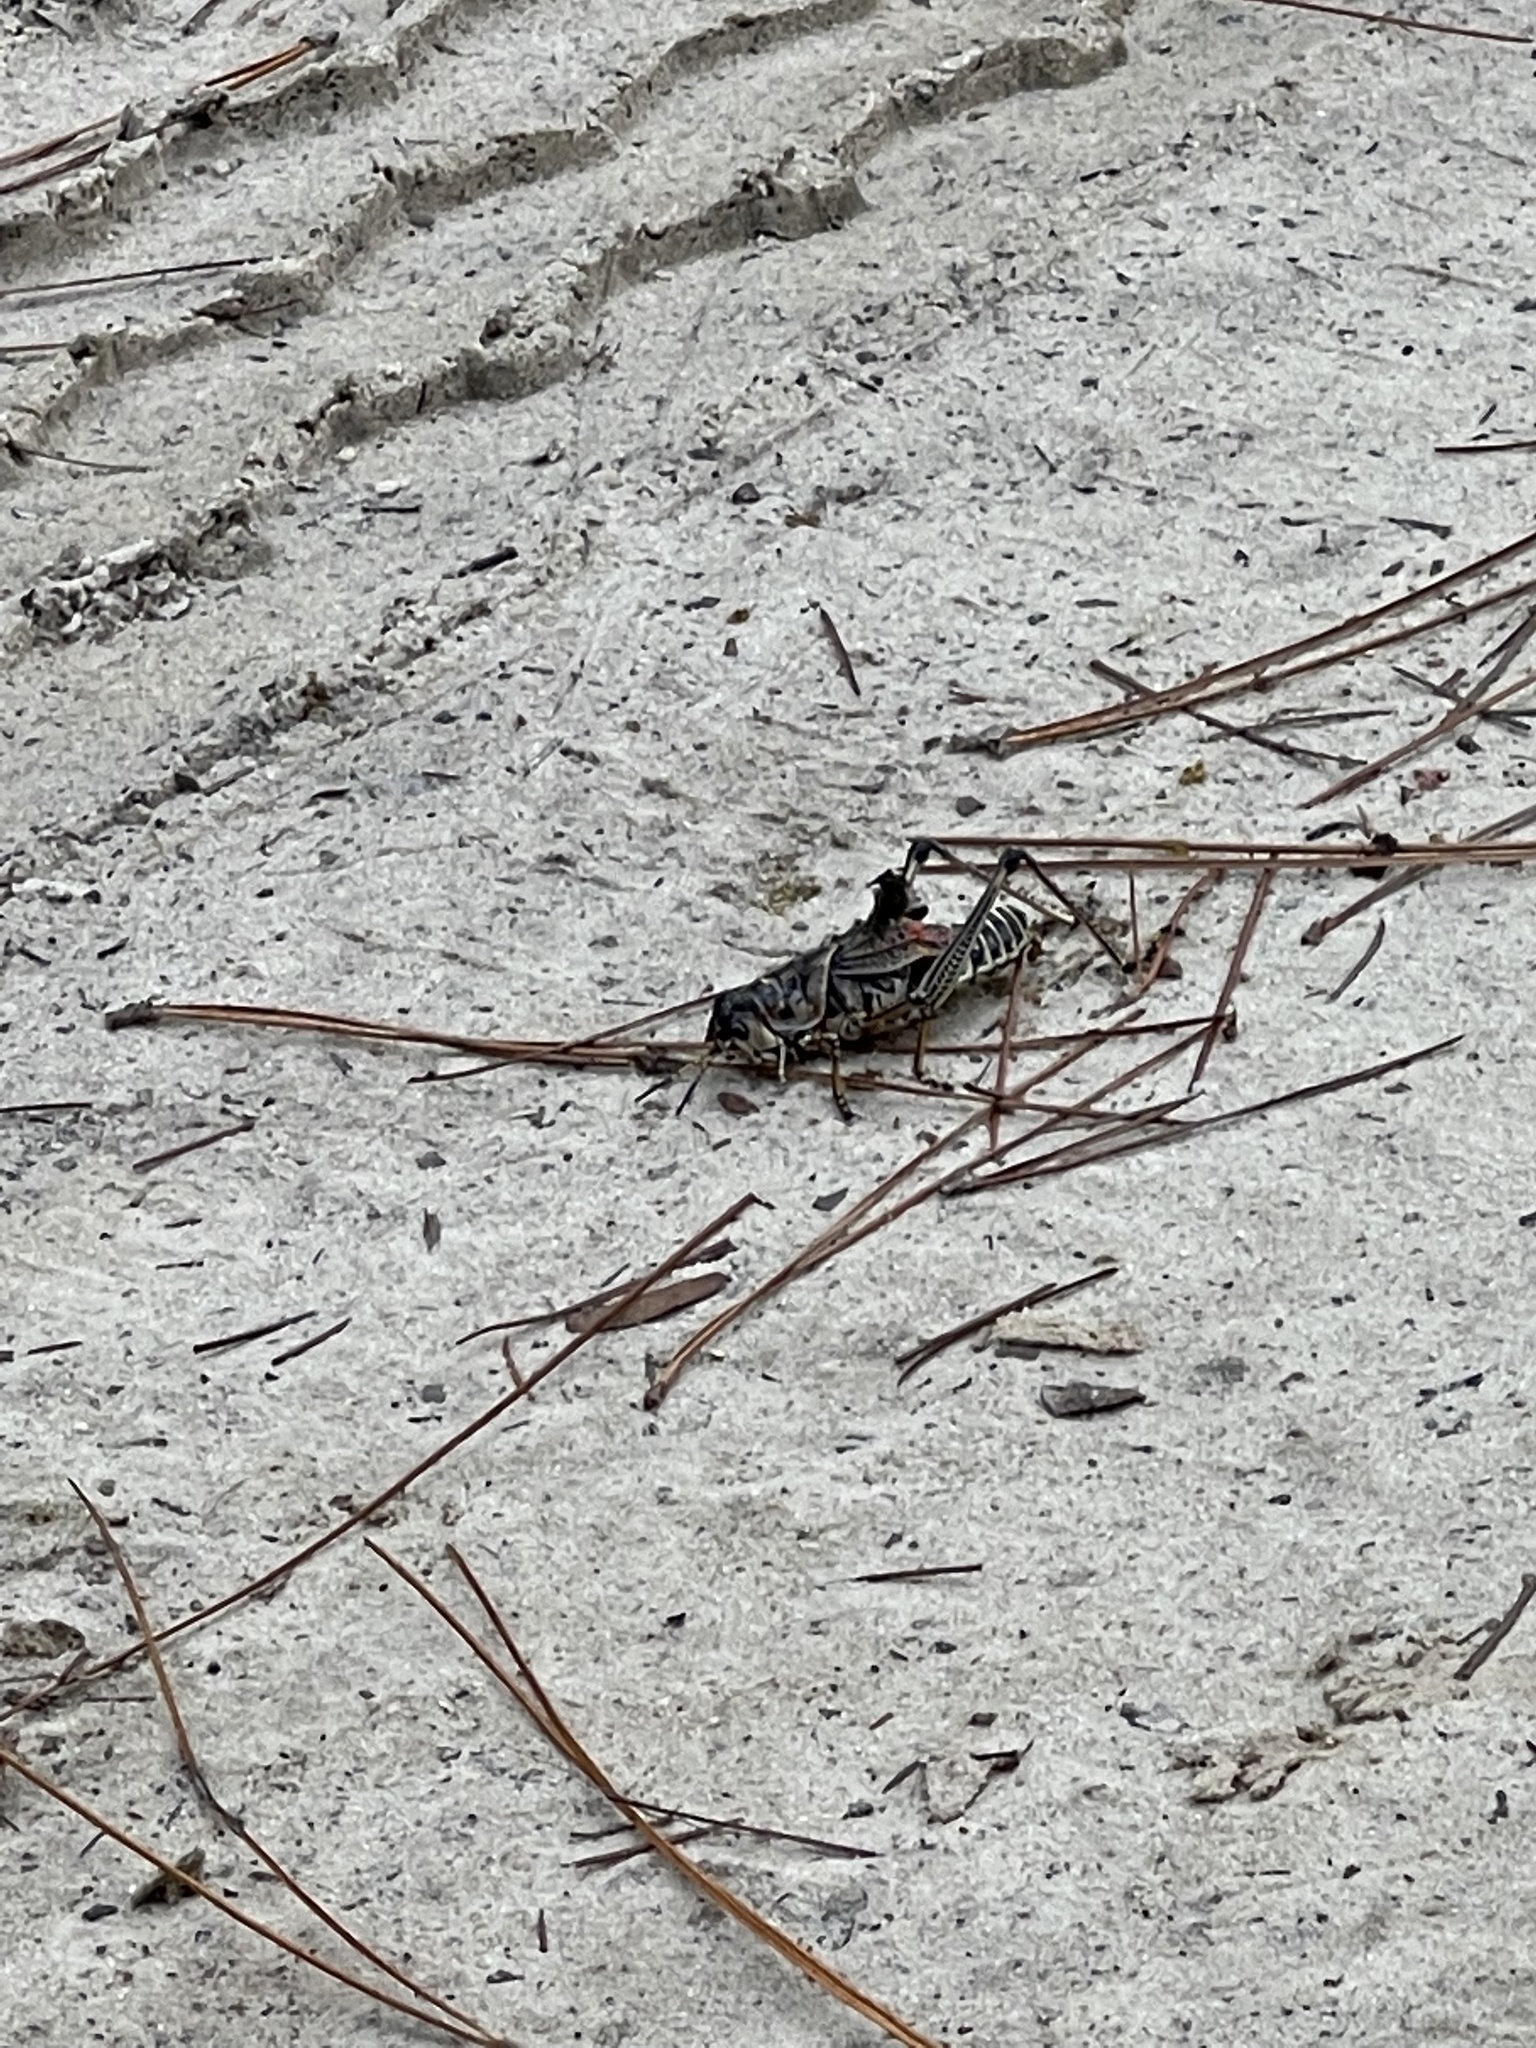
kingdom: Animalia
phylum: Arthropoda
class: Insecta
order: Orthoptera
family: Romaleidae
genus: Romalea
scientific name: Romalea microptera
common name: Eastern lubber grasshopper
